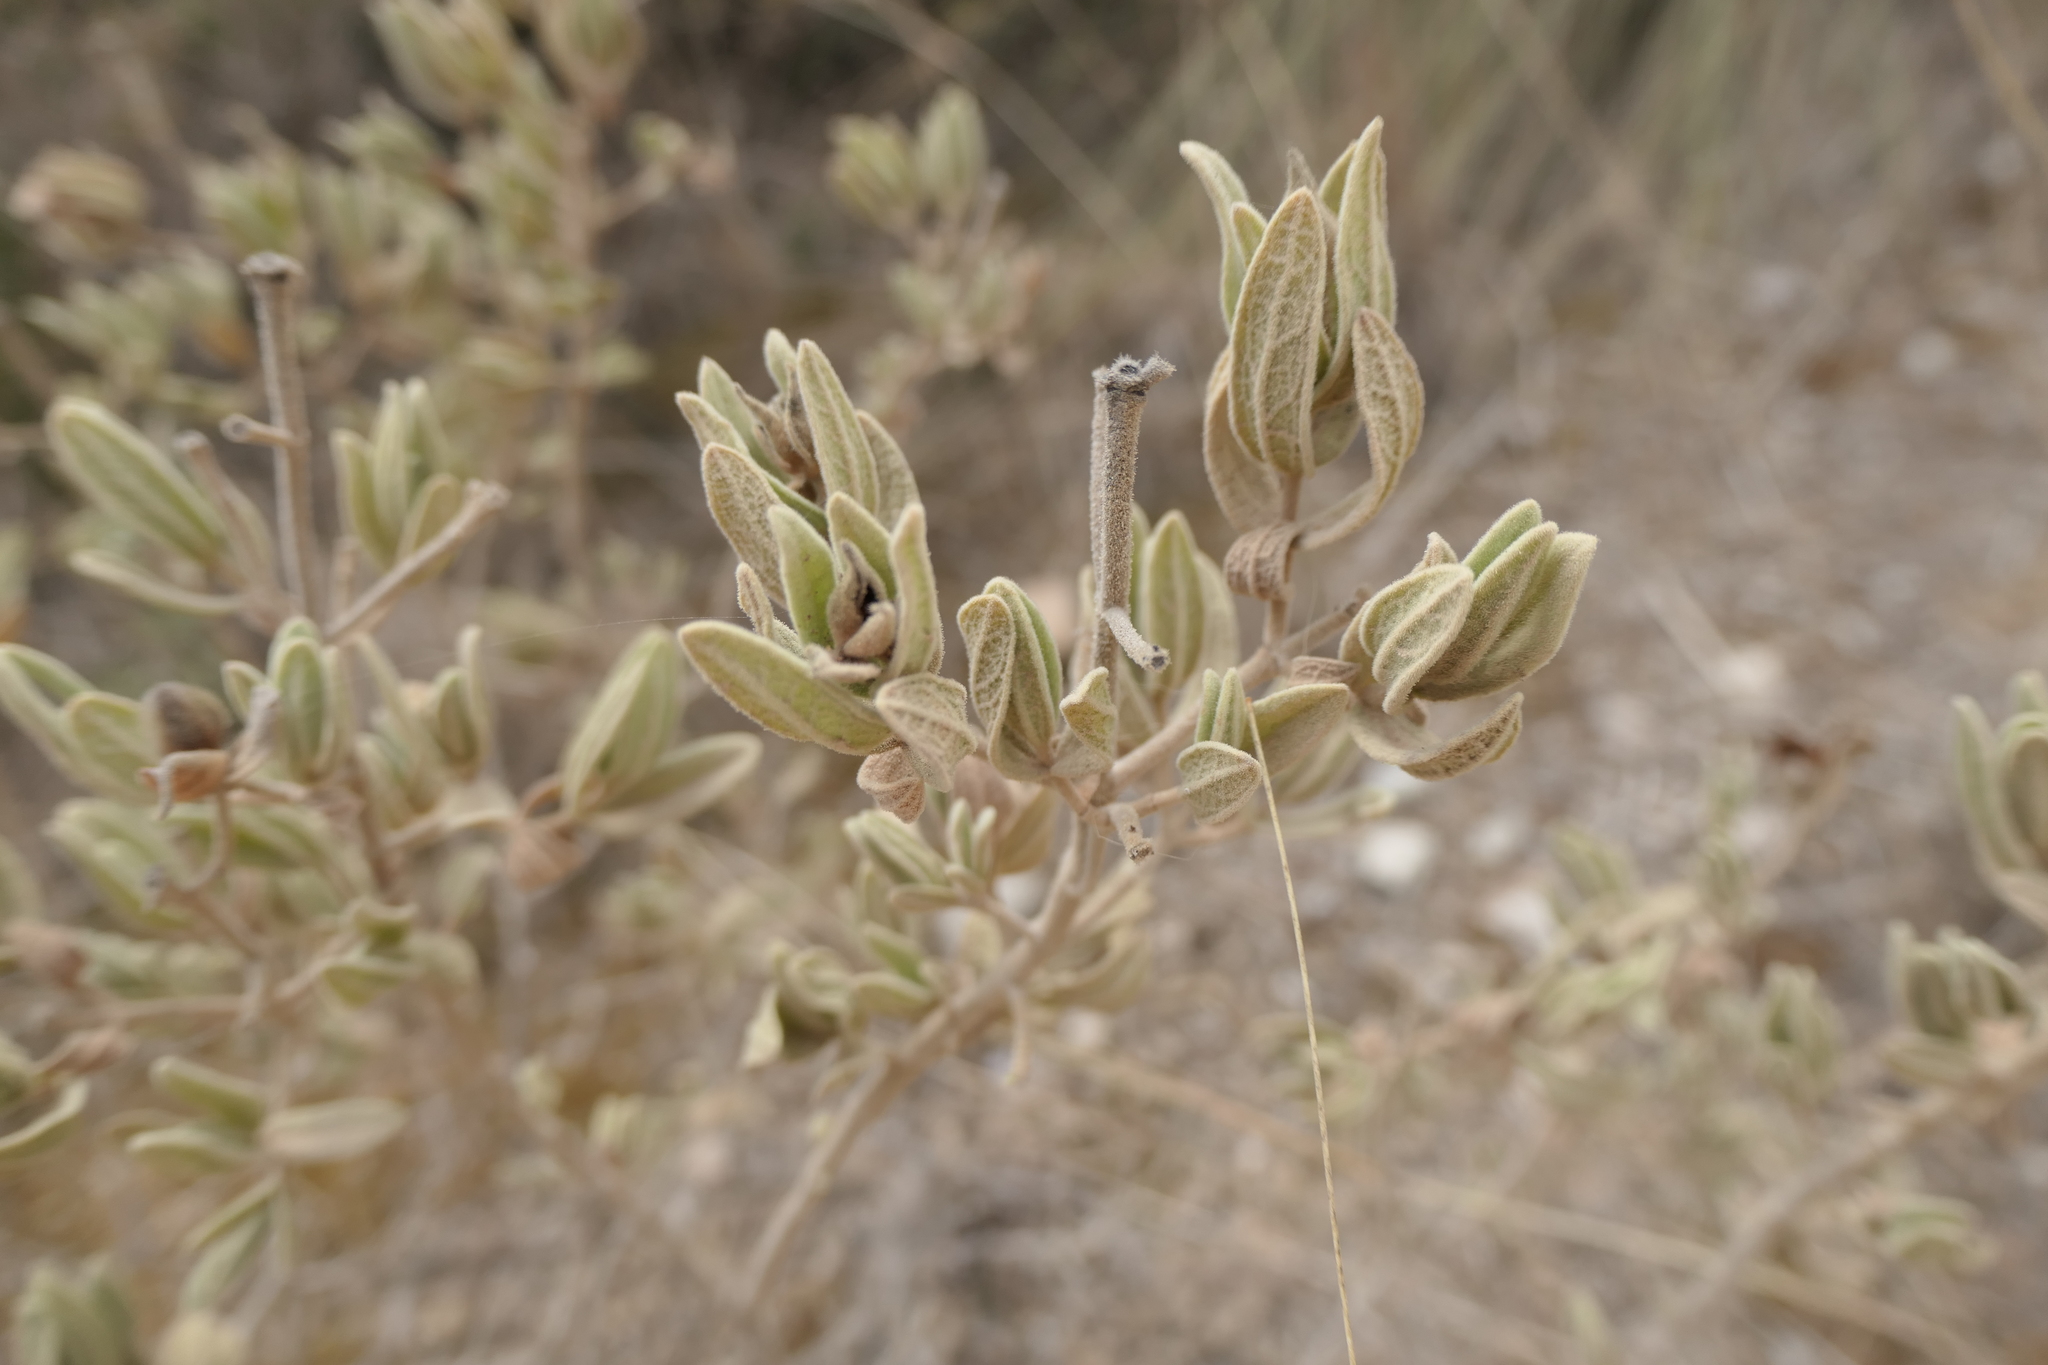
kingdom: Plantae
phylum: Tracheophyta
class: Magnoliopsida
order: Malvales
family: Cistaceae
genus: Cistus
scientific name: Cistus albidus
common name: White-leaf rock-rose
